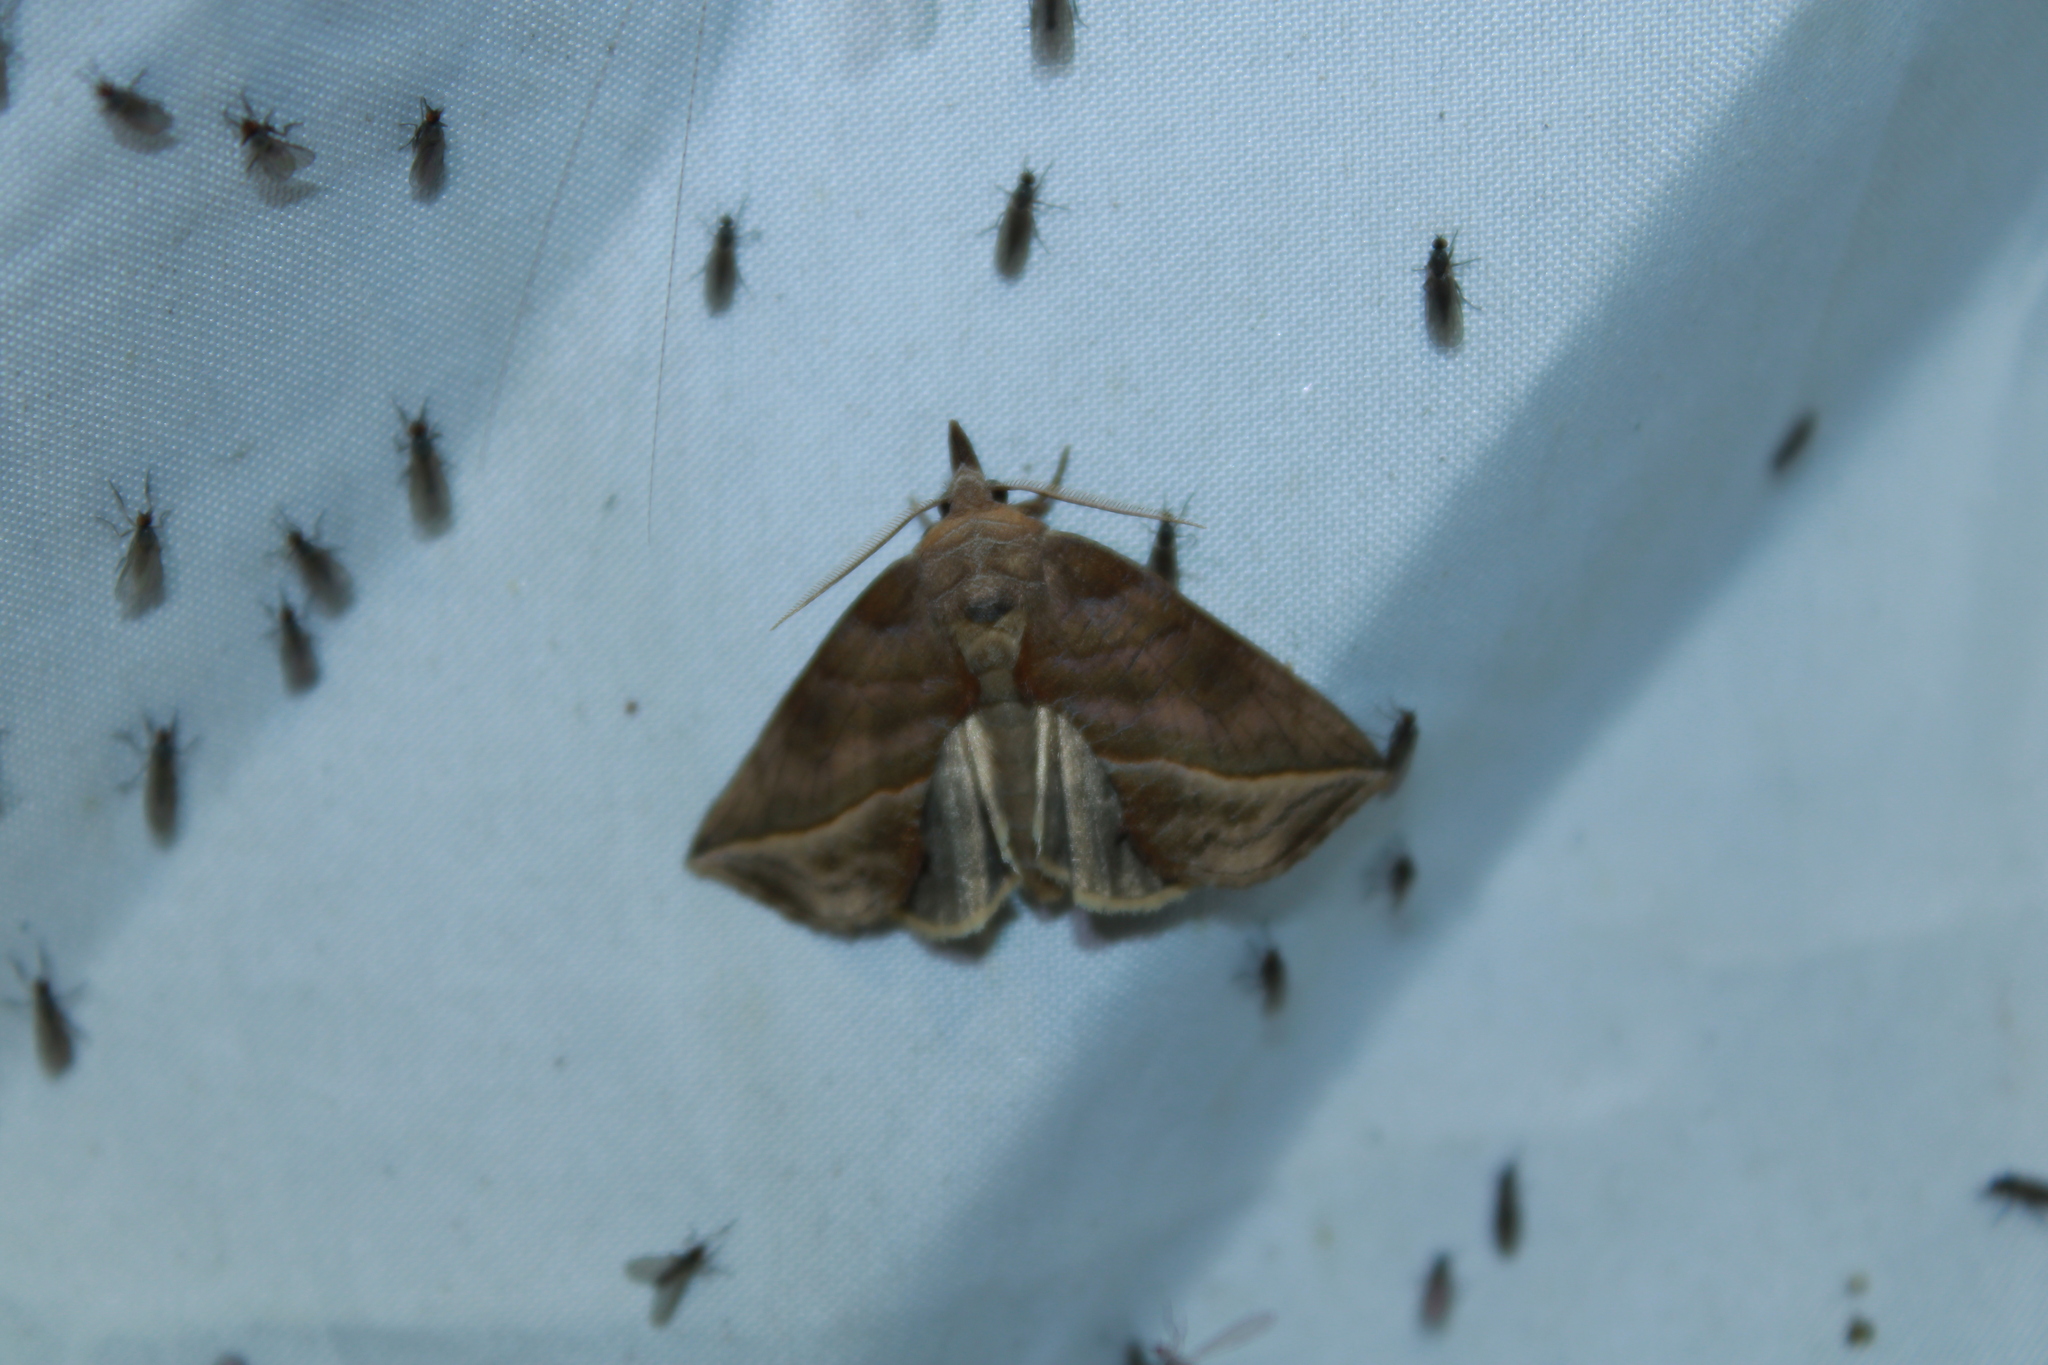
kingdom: Animalia
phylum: Arthropoda
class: Insecta
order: Lepidoptera
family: Erebidae
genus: Calyptra
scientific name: Calyptra canadensis
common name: Canadian owlet
